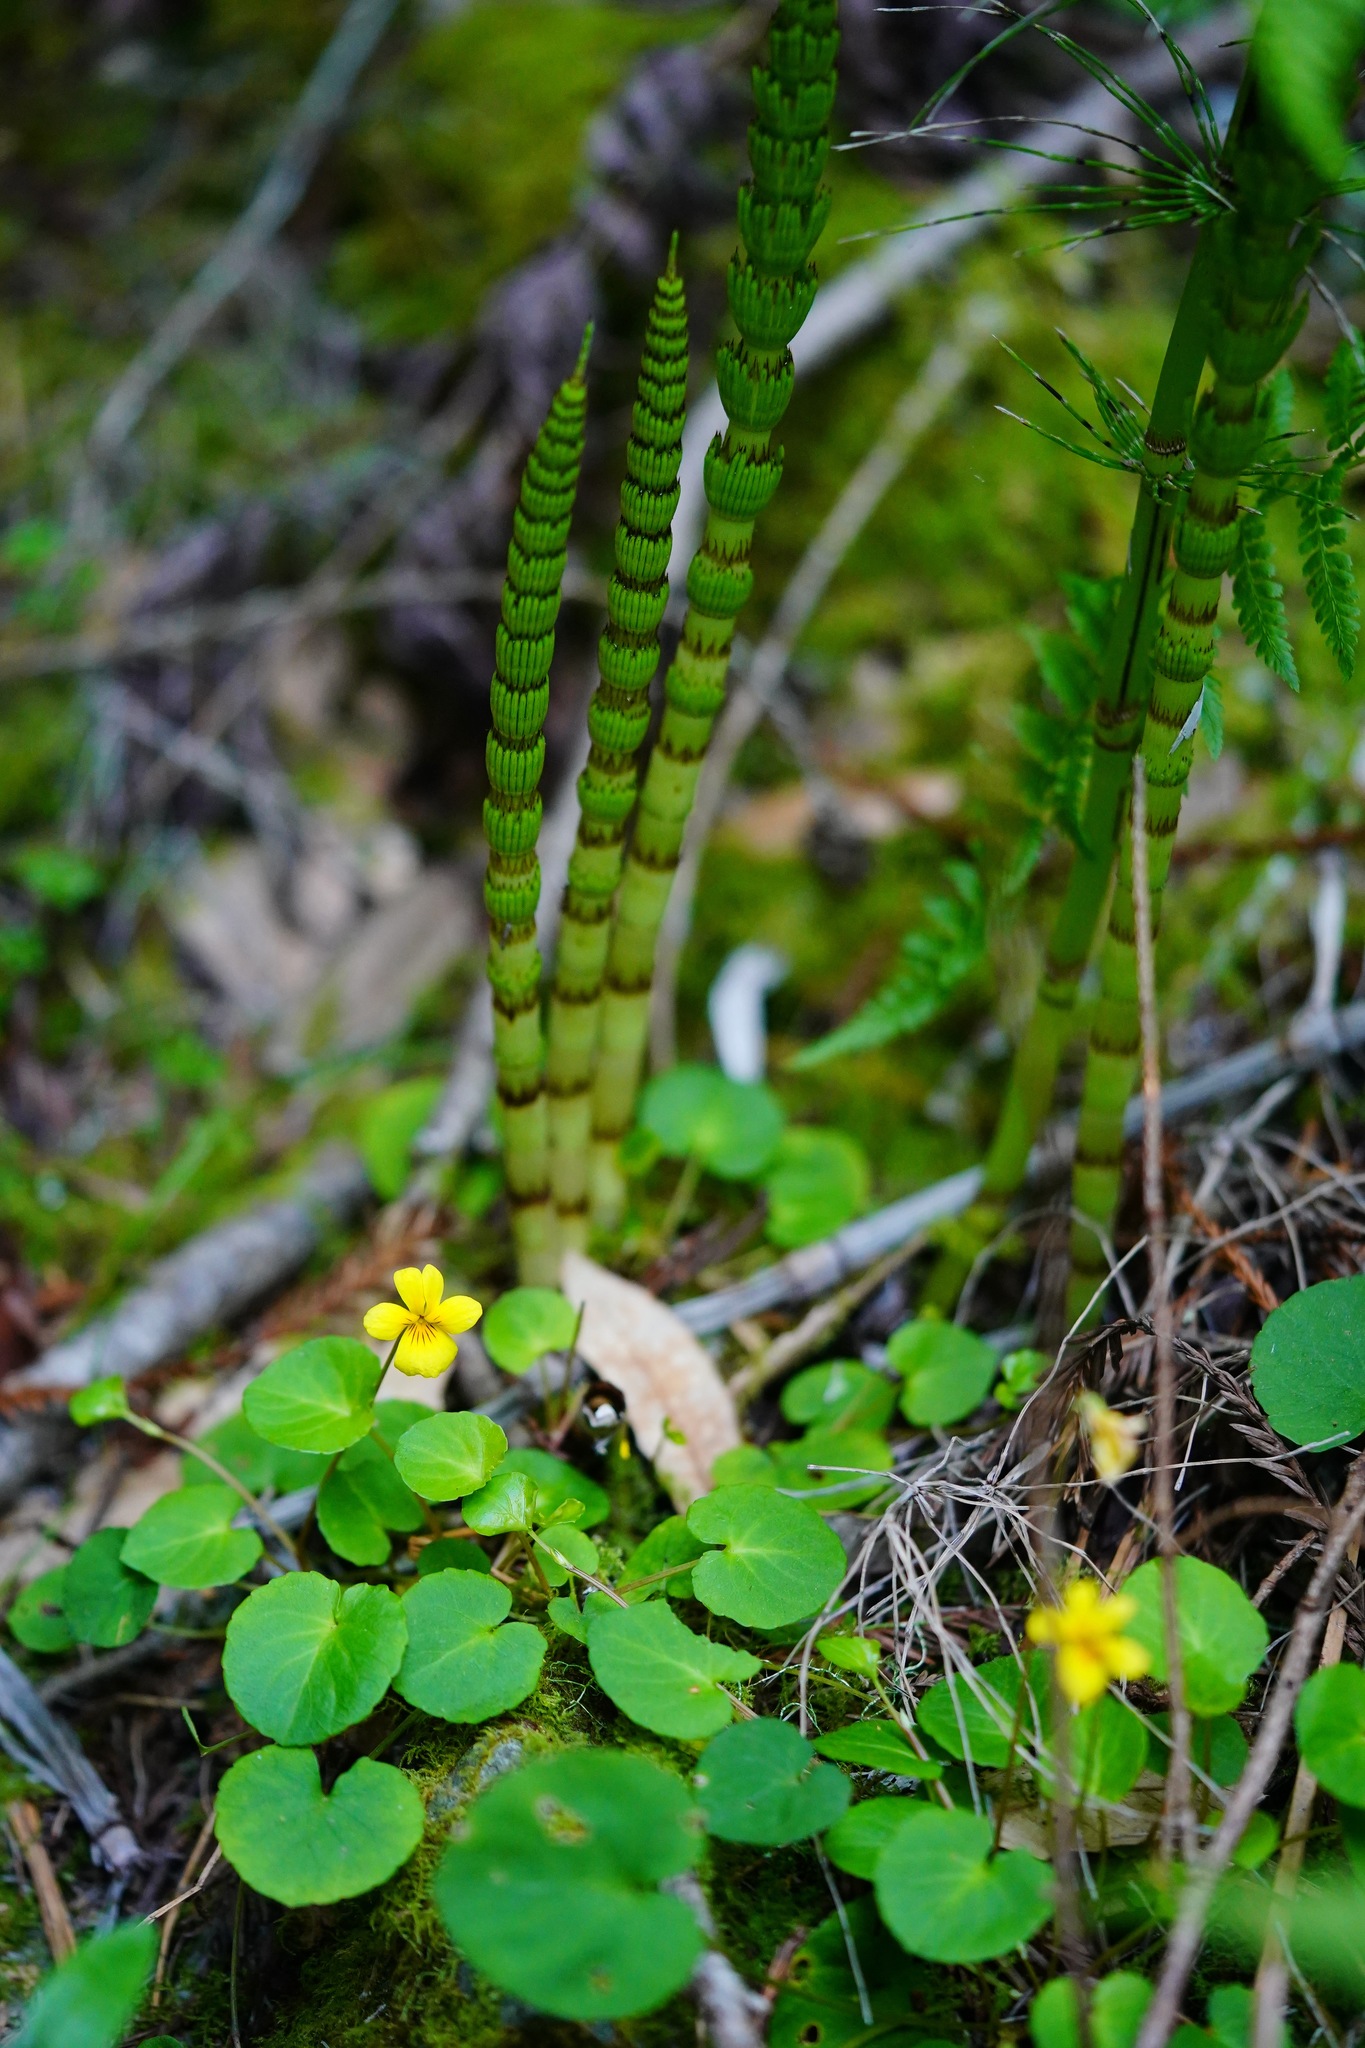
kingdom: Plantae
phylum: Tracheophyta
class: Magnoliopsida
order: Malpighiales
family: Violaceae
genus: Viola
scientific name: Viola sempervirens
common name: Evergreen violet
